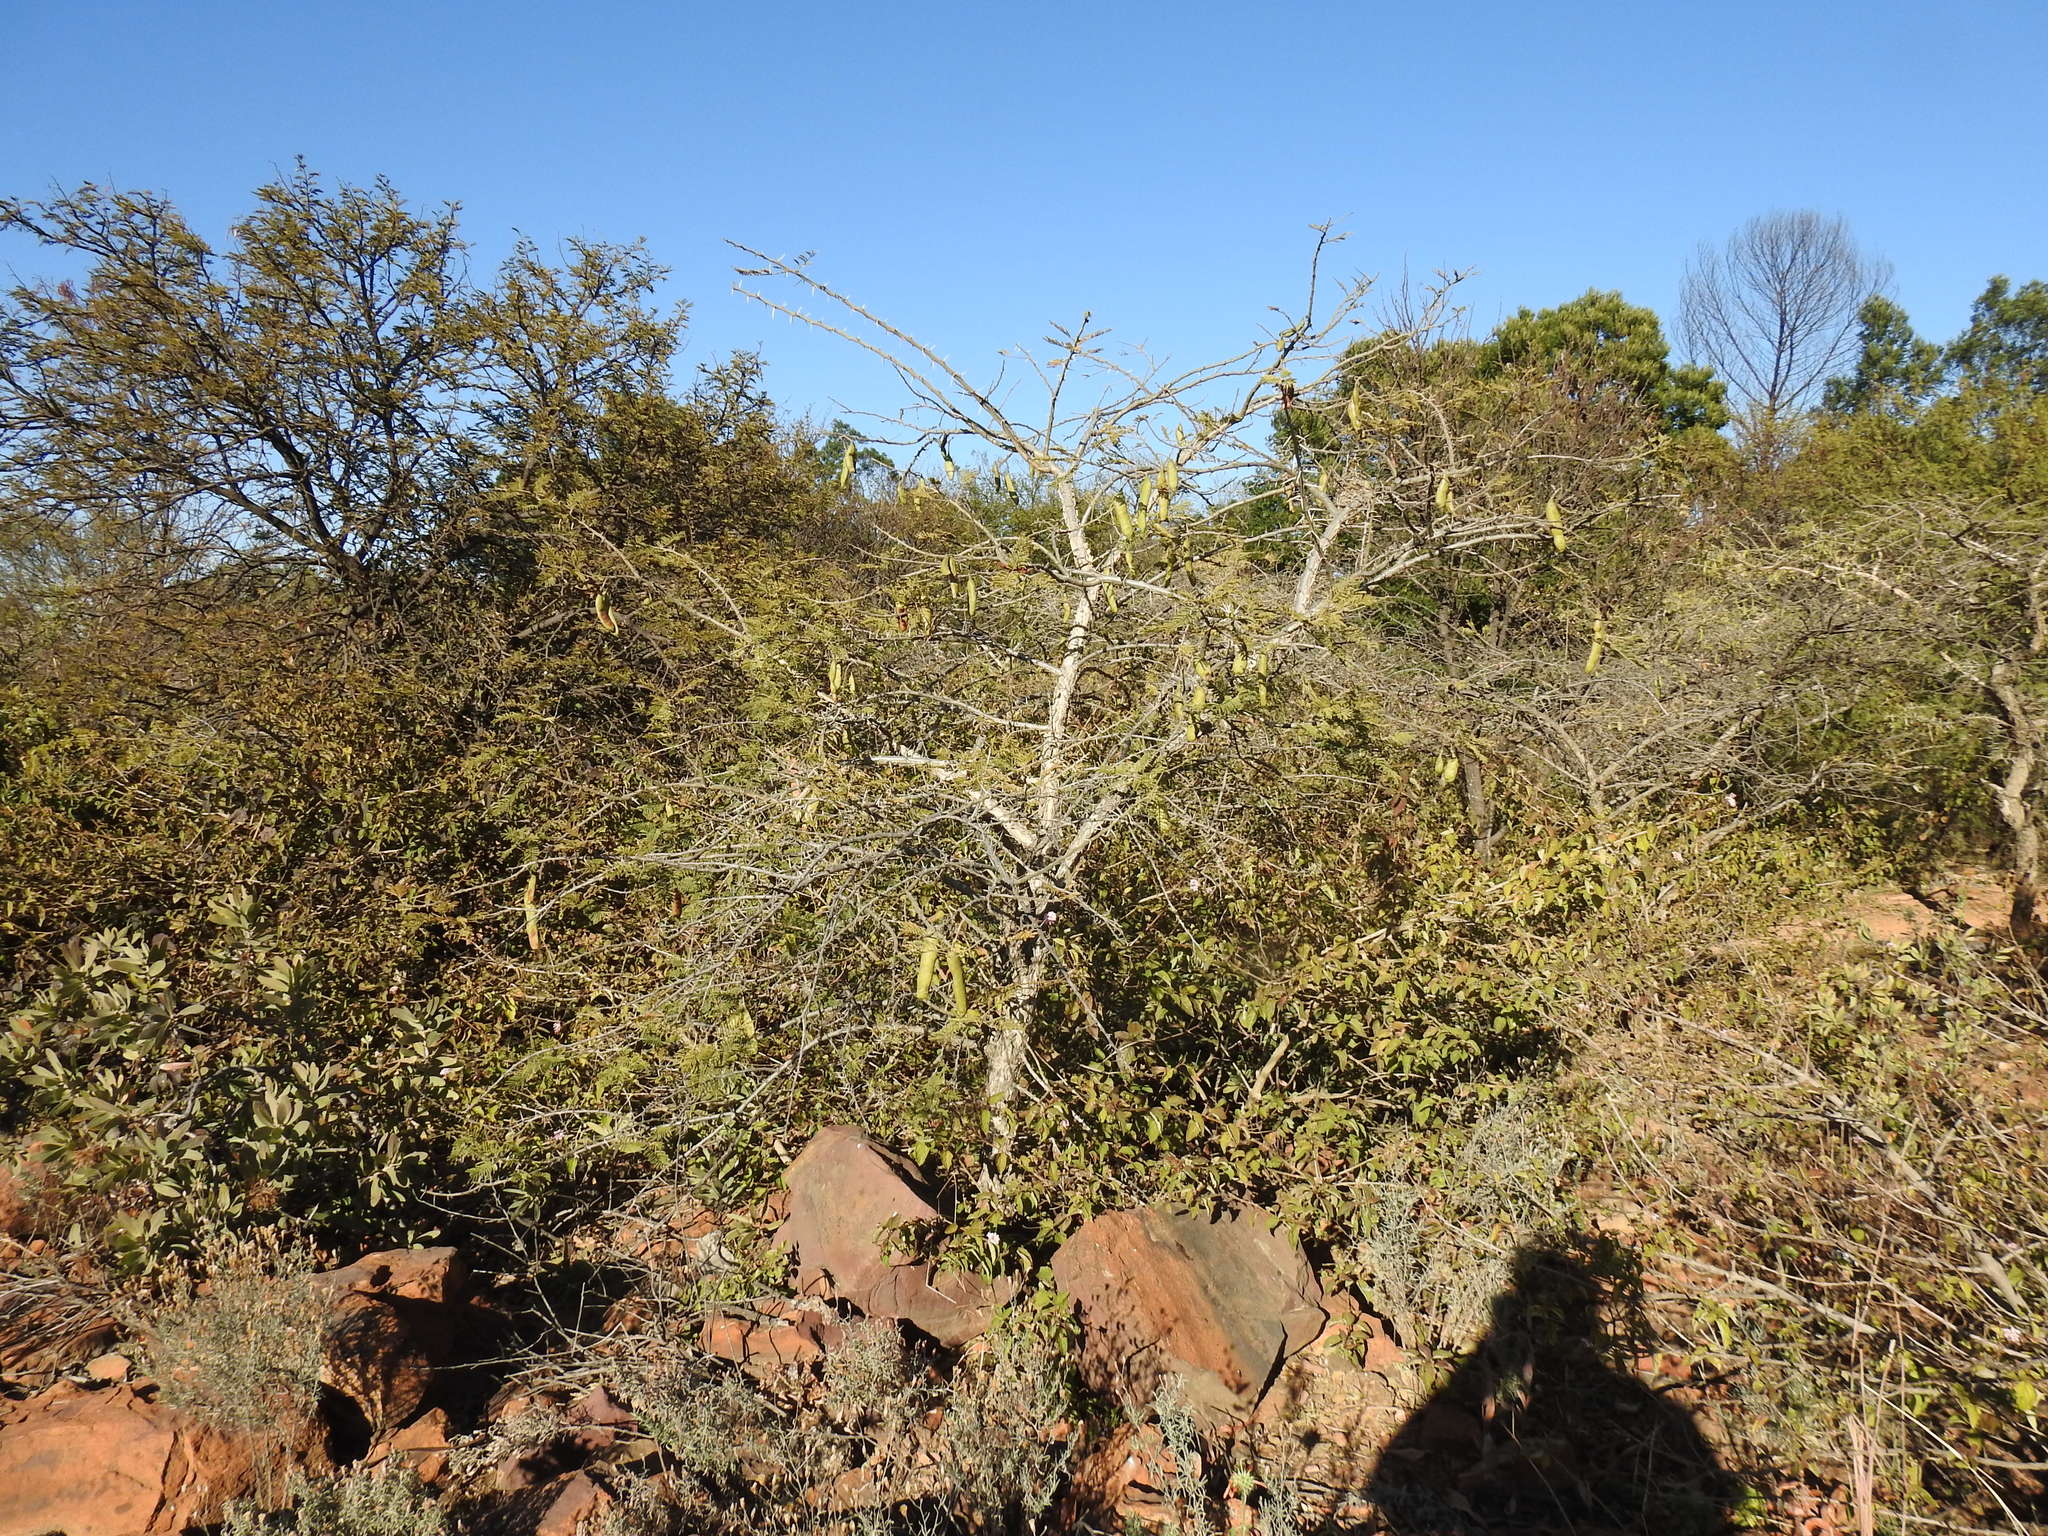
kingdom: Plantae
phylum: Tracheophyta
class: Magnoliopsida
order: Fabales
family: Fabaceae
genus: Vachellia
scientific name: Vachellia sieberiana
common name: Flat-topped thorn
